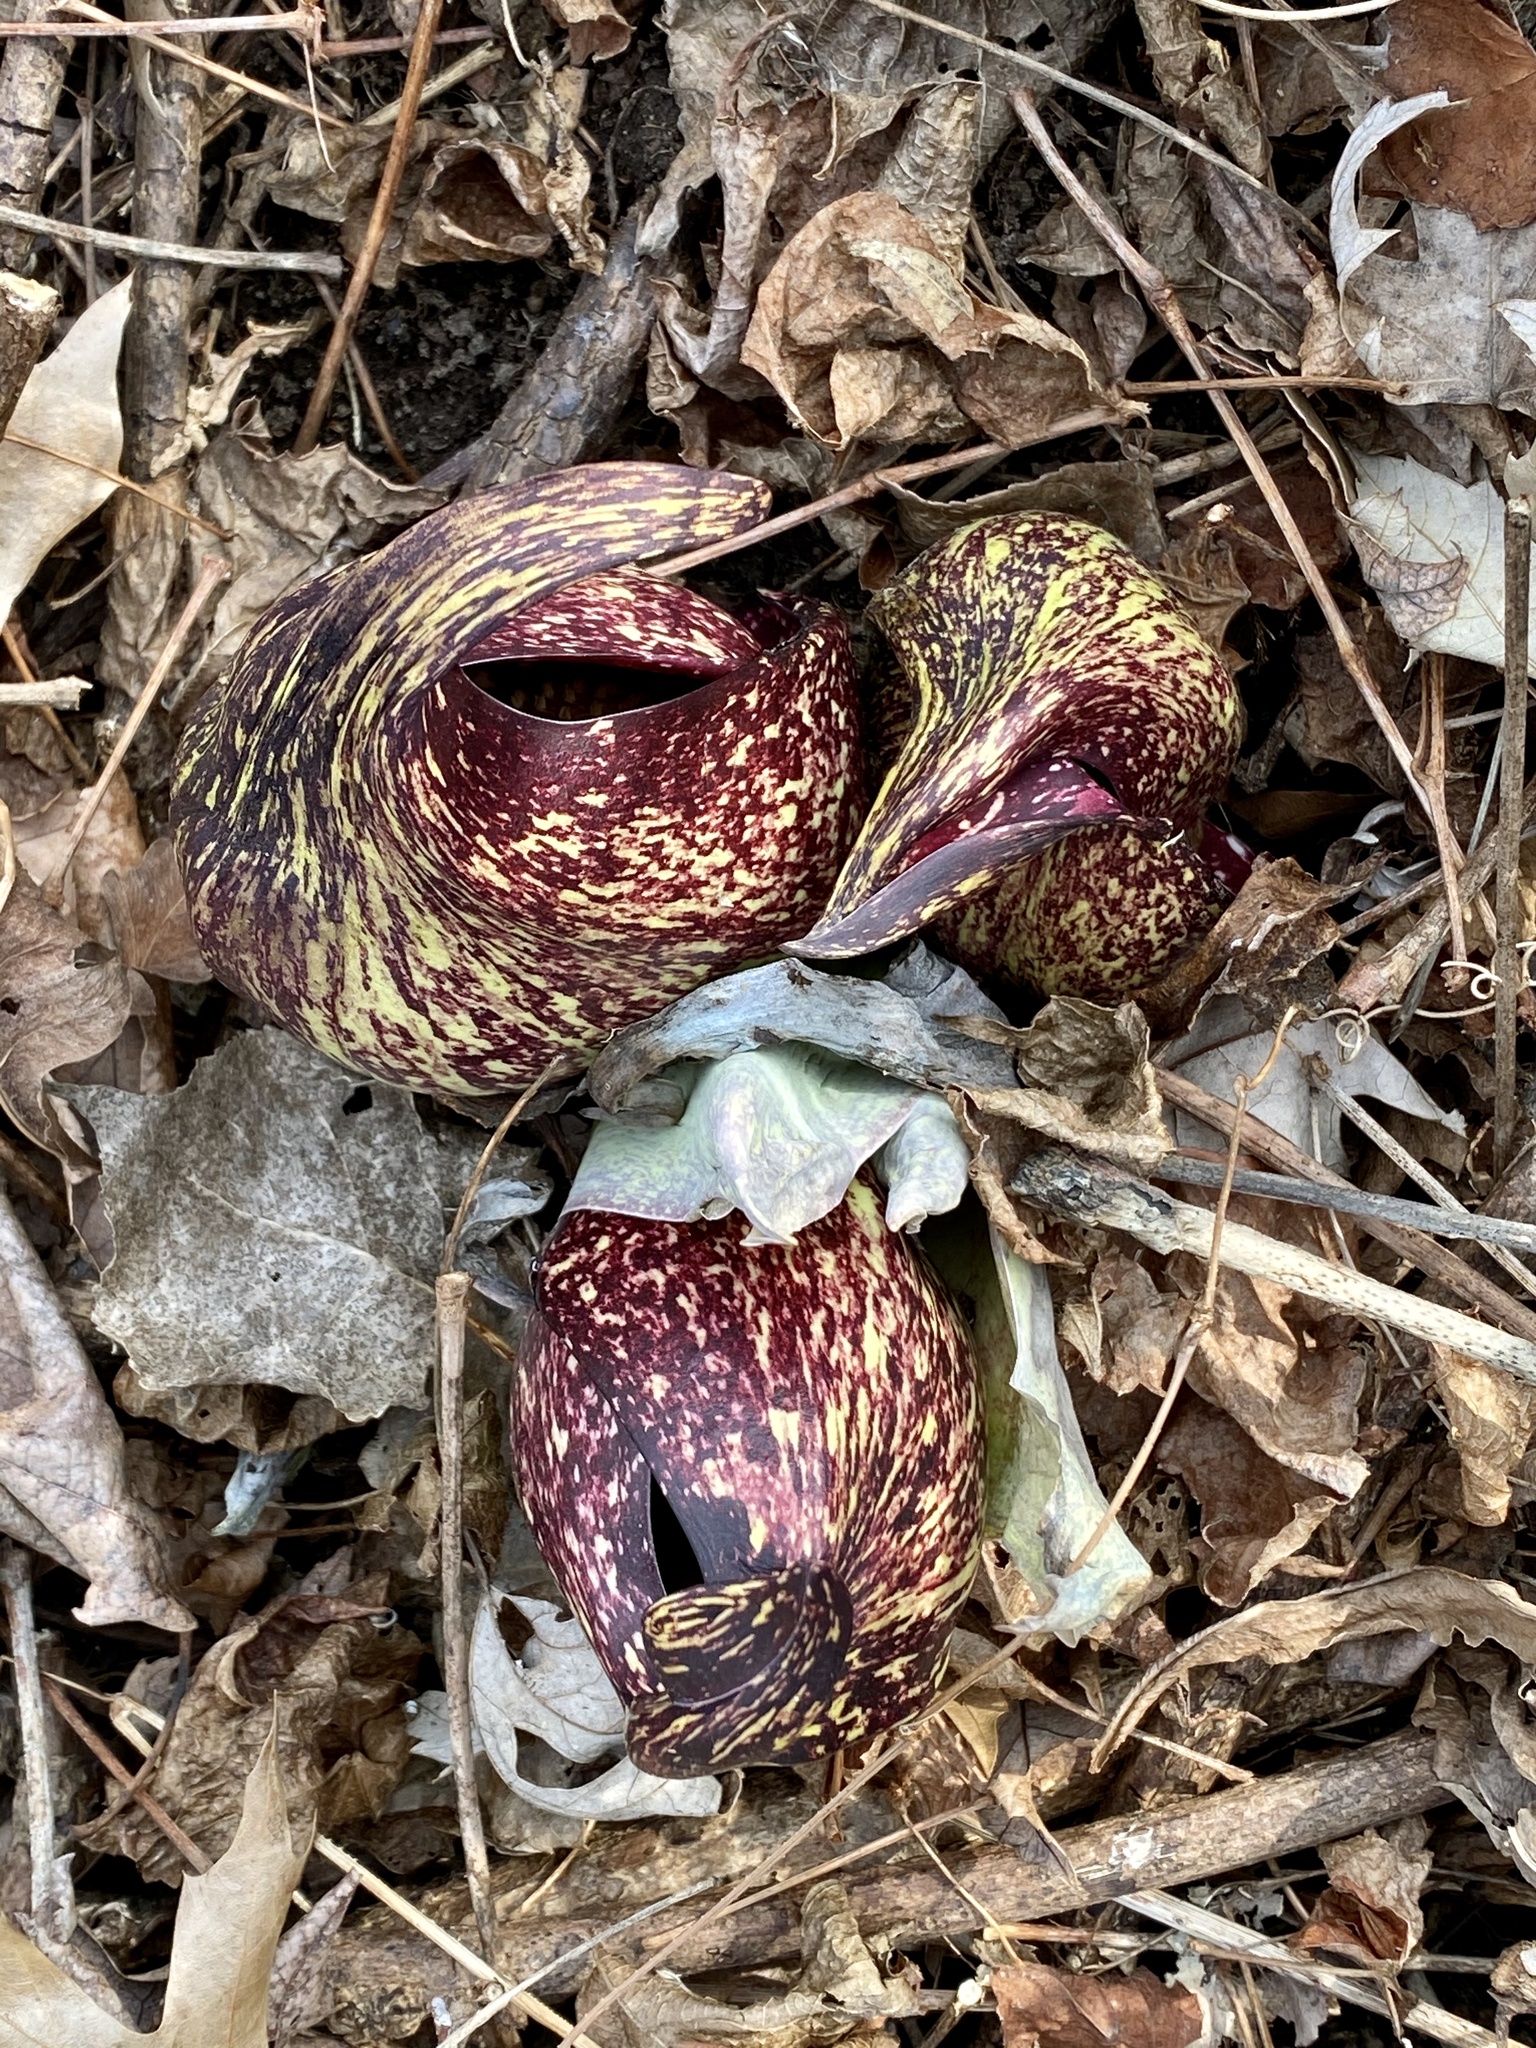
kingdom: Plantae
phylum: Tracheophyta
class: Liliopsida
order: Alismatales
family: Araceae
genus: Symplocarpus
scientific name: Symplocarpus foetidus
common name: Eastern skunk cabbage
